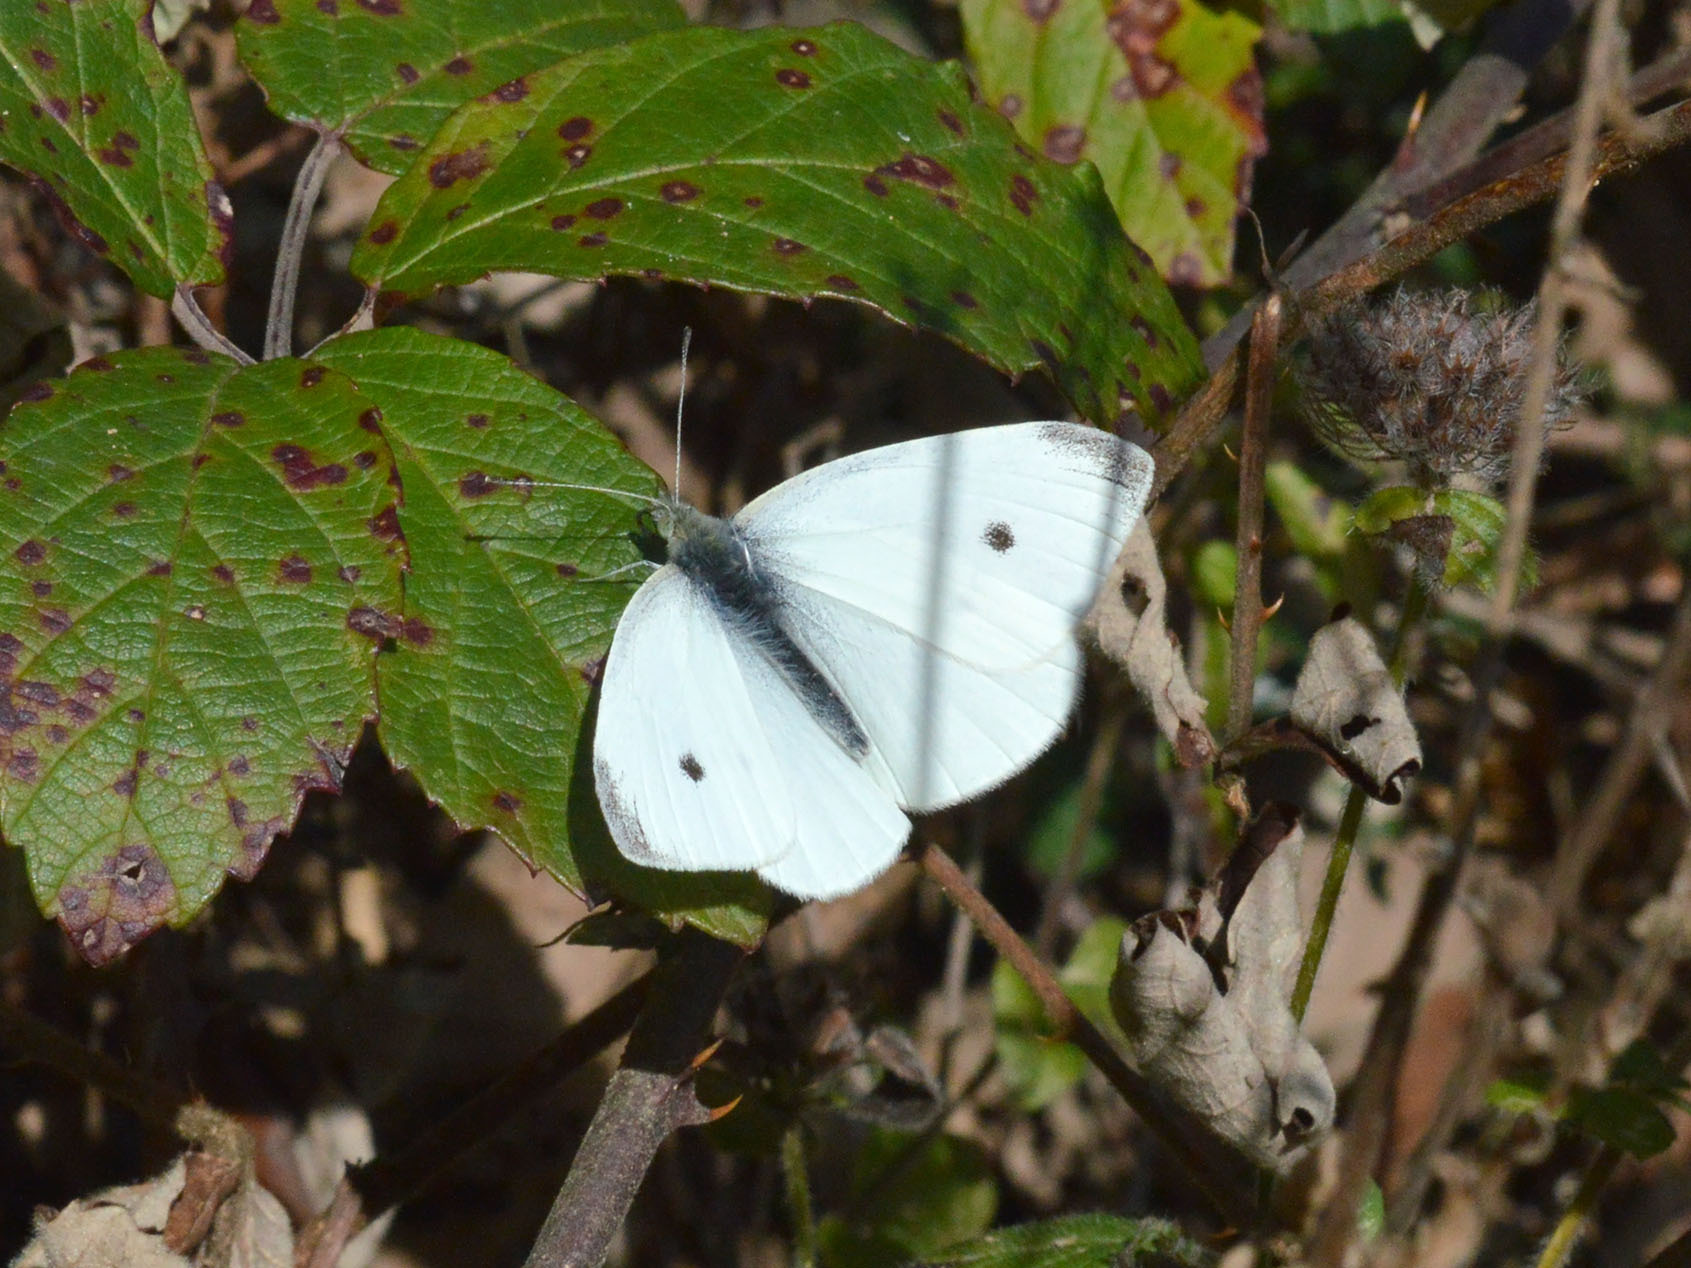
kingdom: Animalia
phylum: Arthropoda
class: Insecta
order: Lepidoptera
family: Pieridae
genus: Pieris
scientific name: Pieris rapae
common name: Small white
